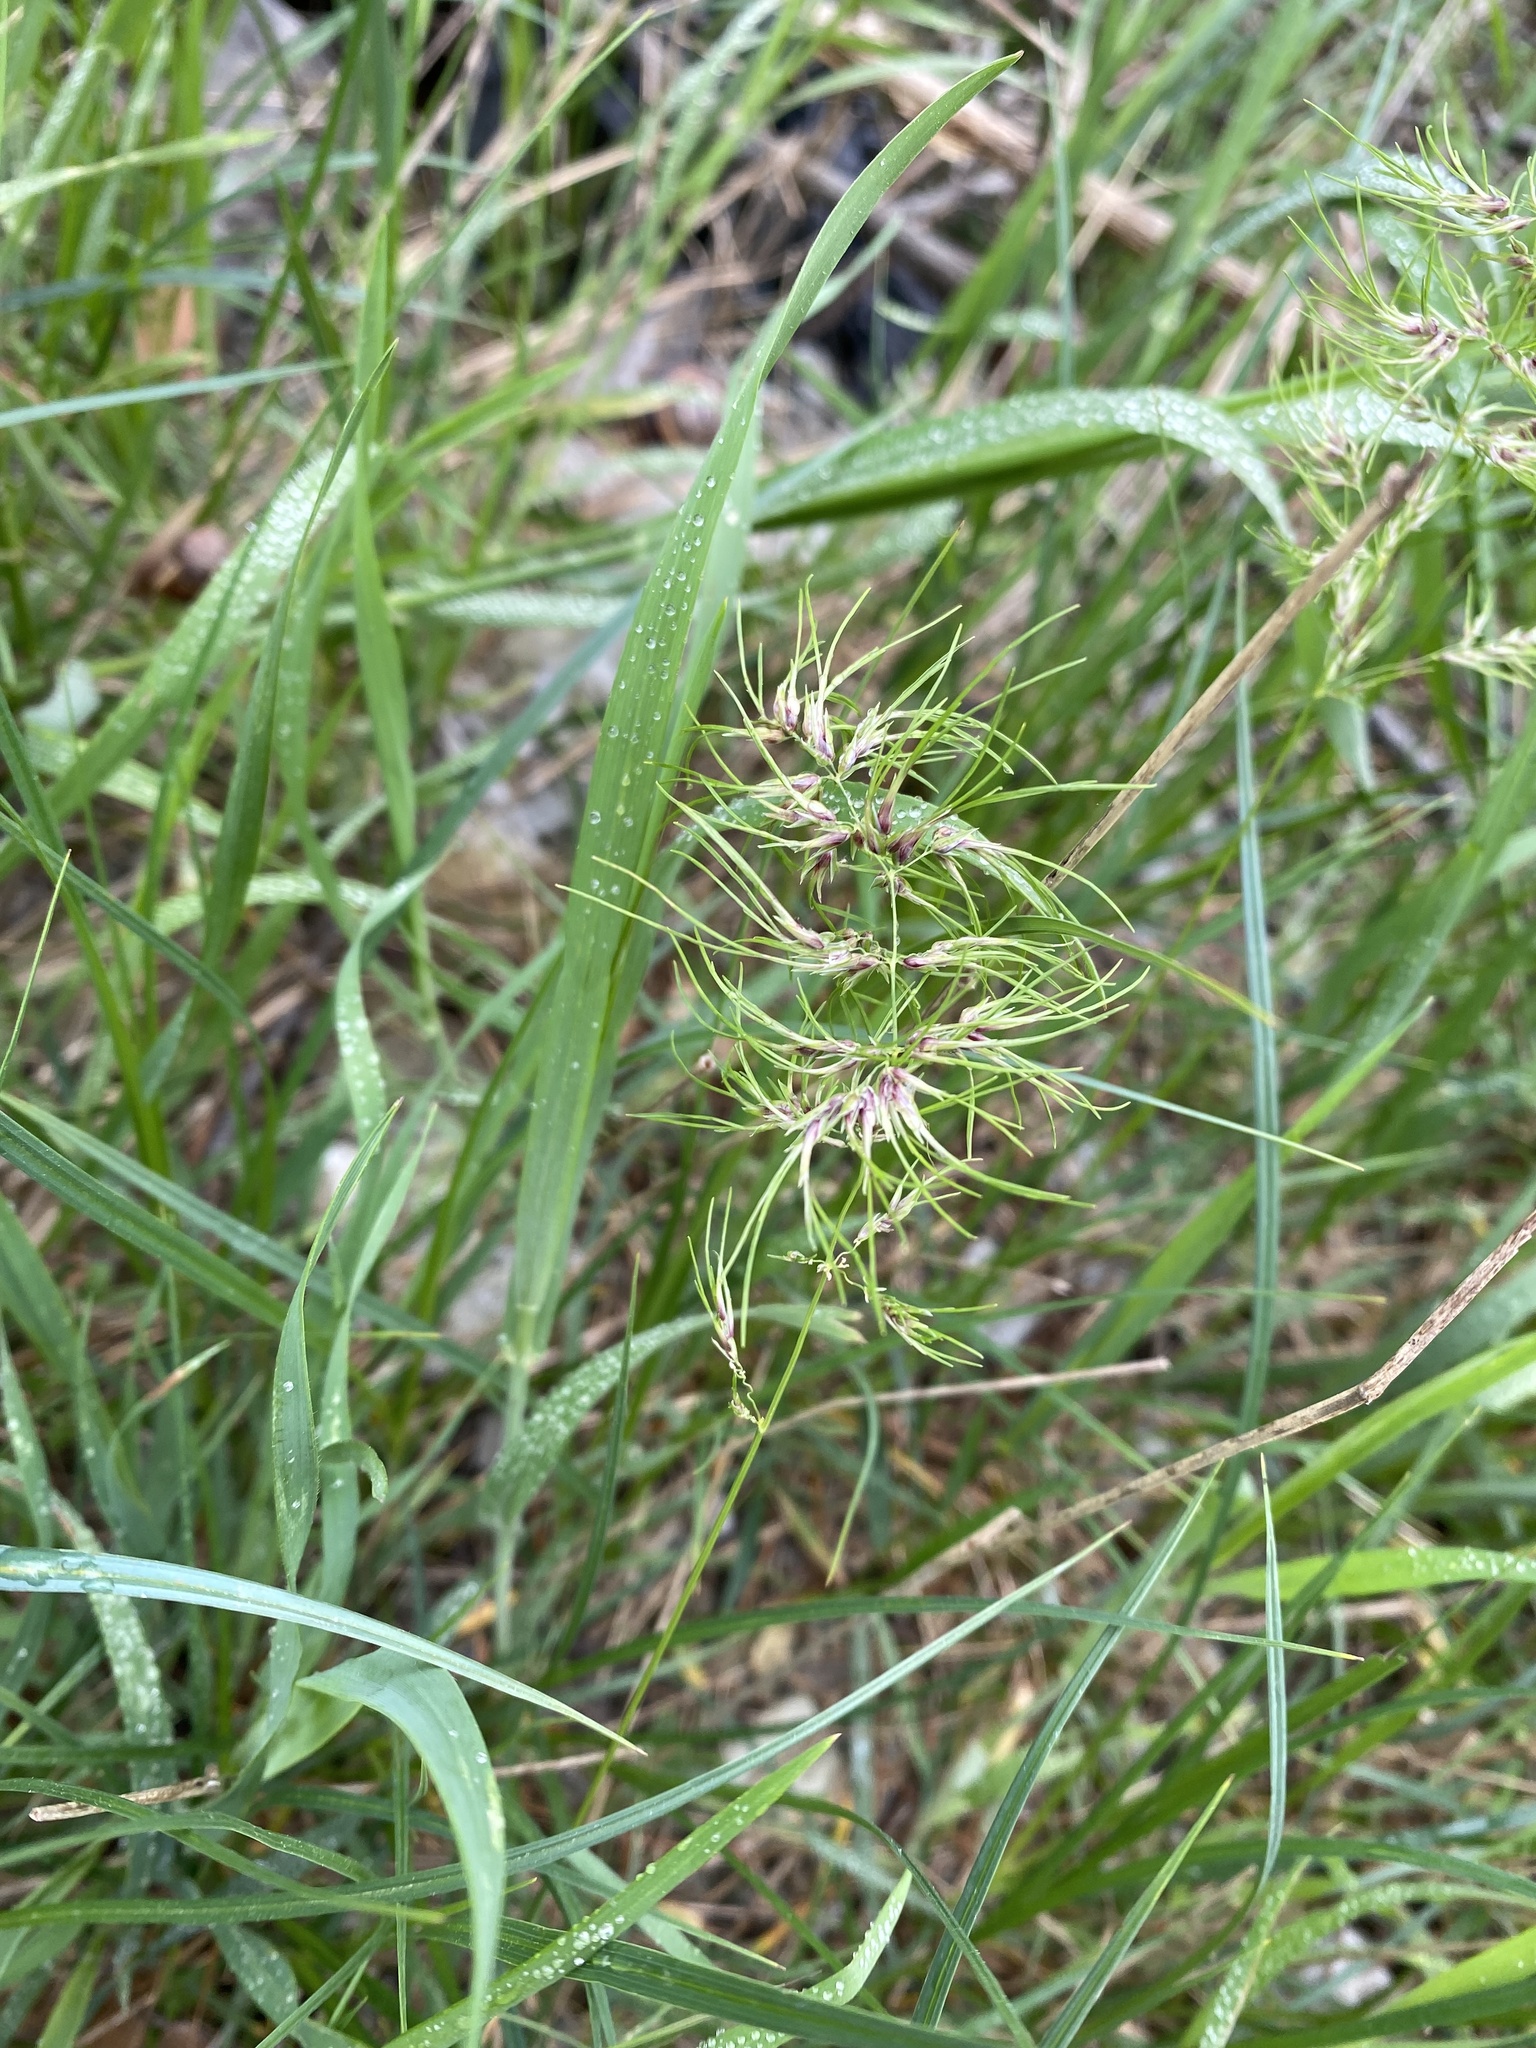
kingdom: Plantae
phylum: Tracheophyta
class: Liliopsida
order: Poales
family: Poaceae
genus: Poa
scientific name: Poa bulbosa
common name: Bulbous bluegrass
